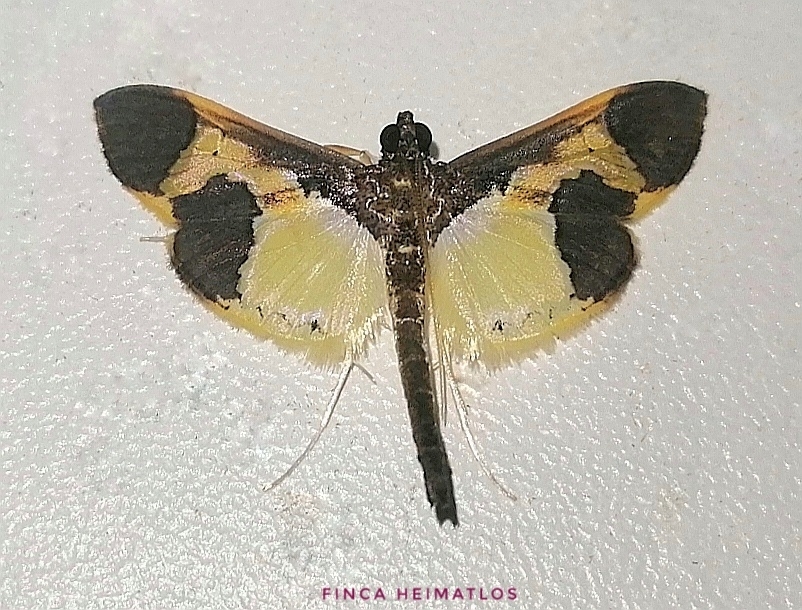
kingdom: Animalia
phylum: Arthropoda
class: Insecta
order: Lepidoptera
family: Crambidae
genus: Syllepis
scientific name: Syllepis marialis
